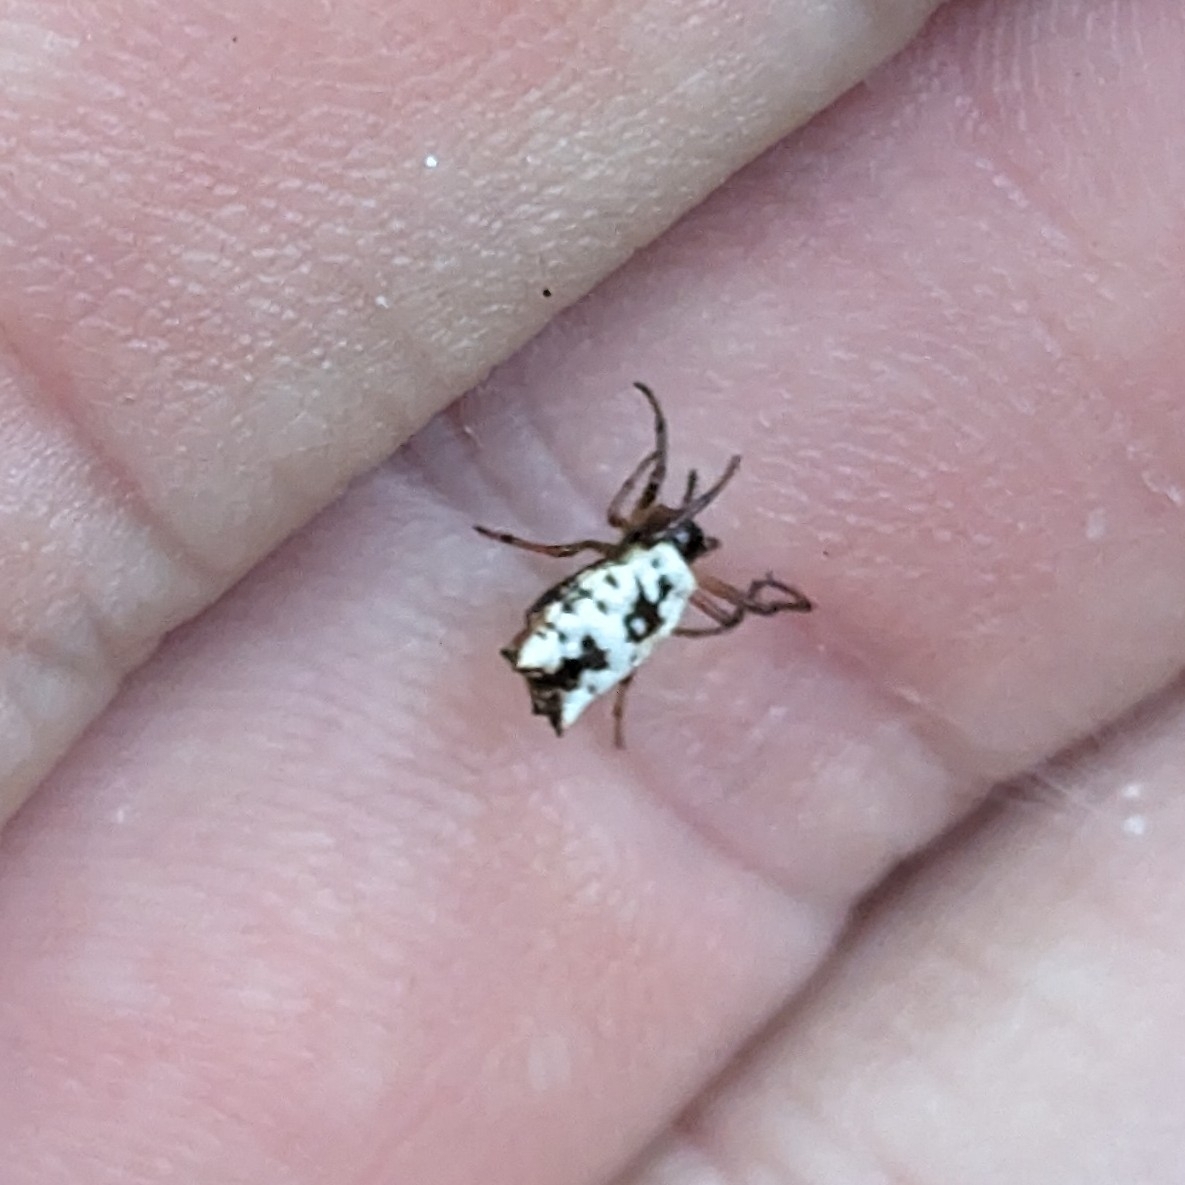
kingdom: Animalia
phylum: Arthropoda
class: Arachnida
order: Araneae
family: Araneidae
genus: Micrathena
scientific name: Micrathena mitrata
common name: Orb weavers
